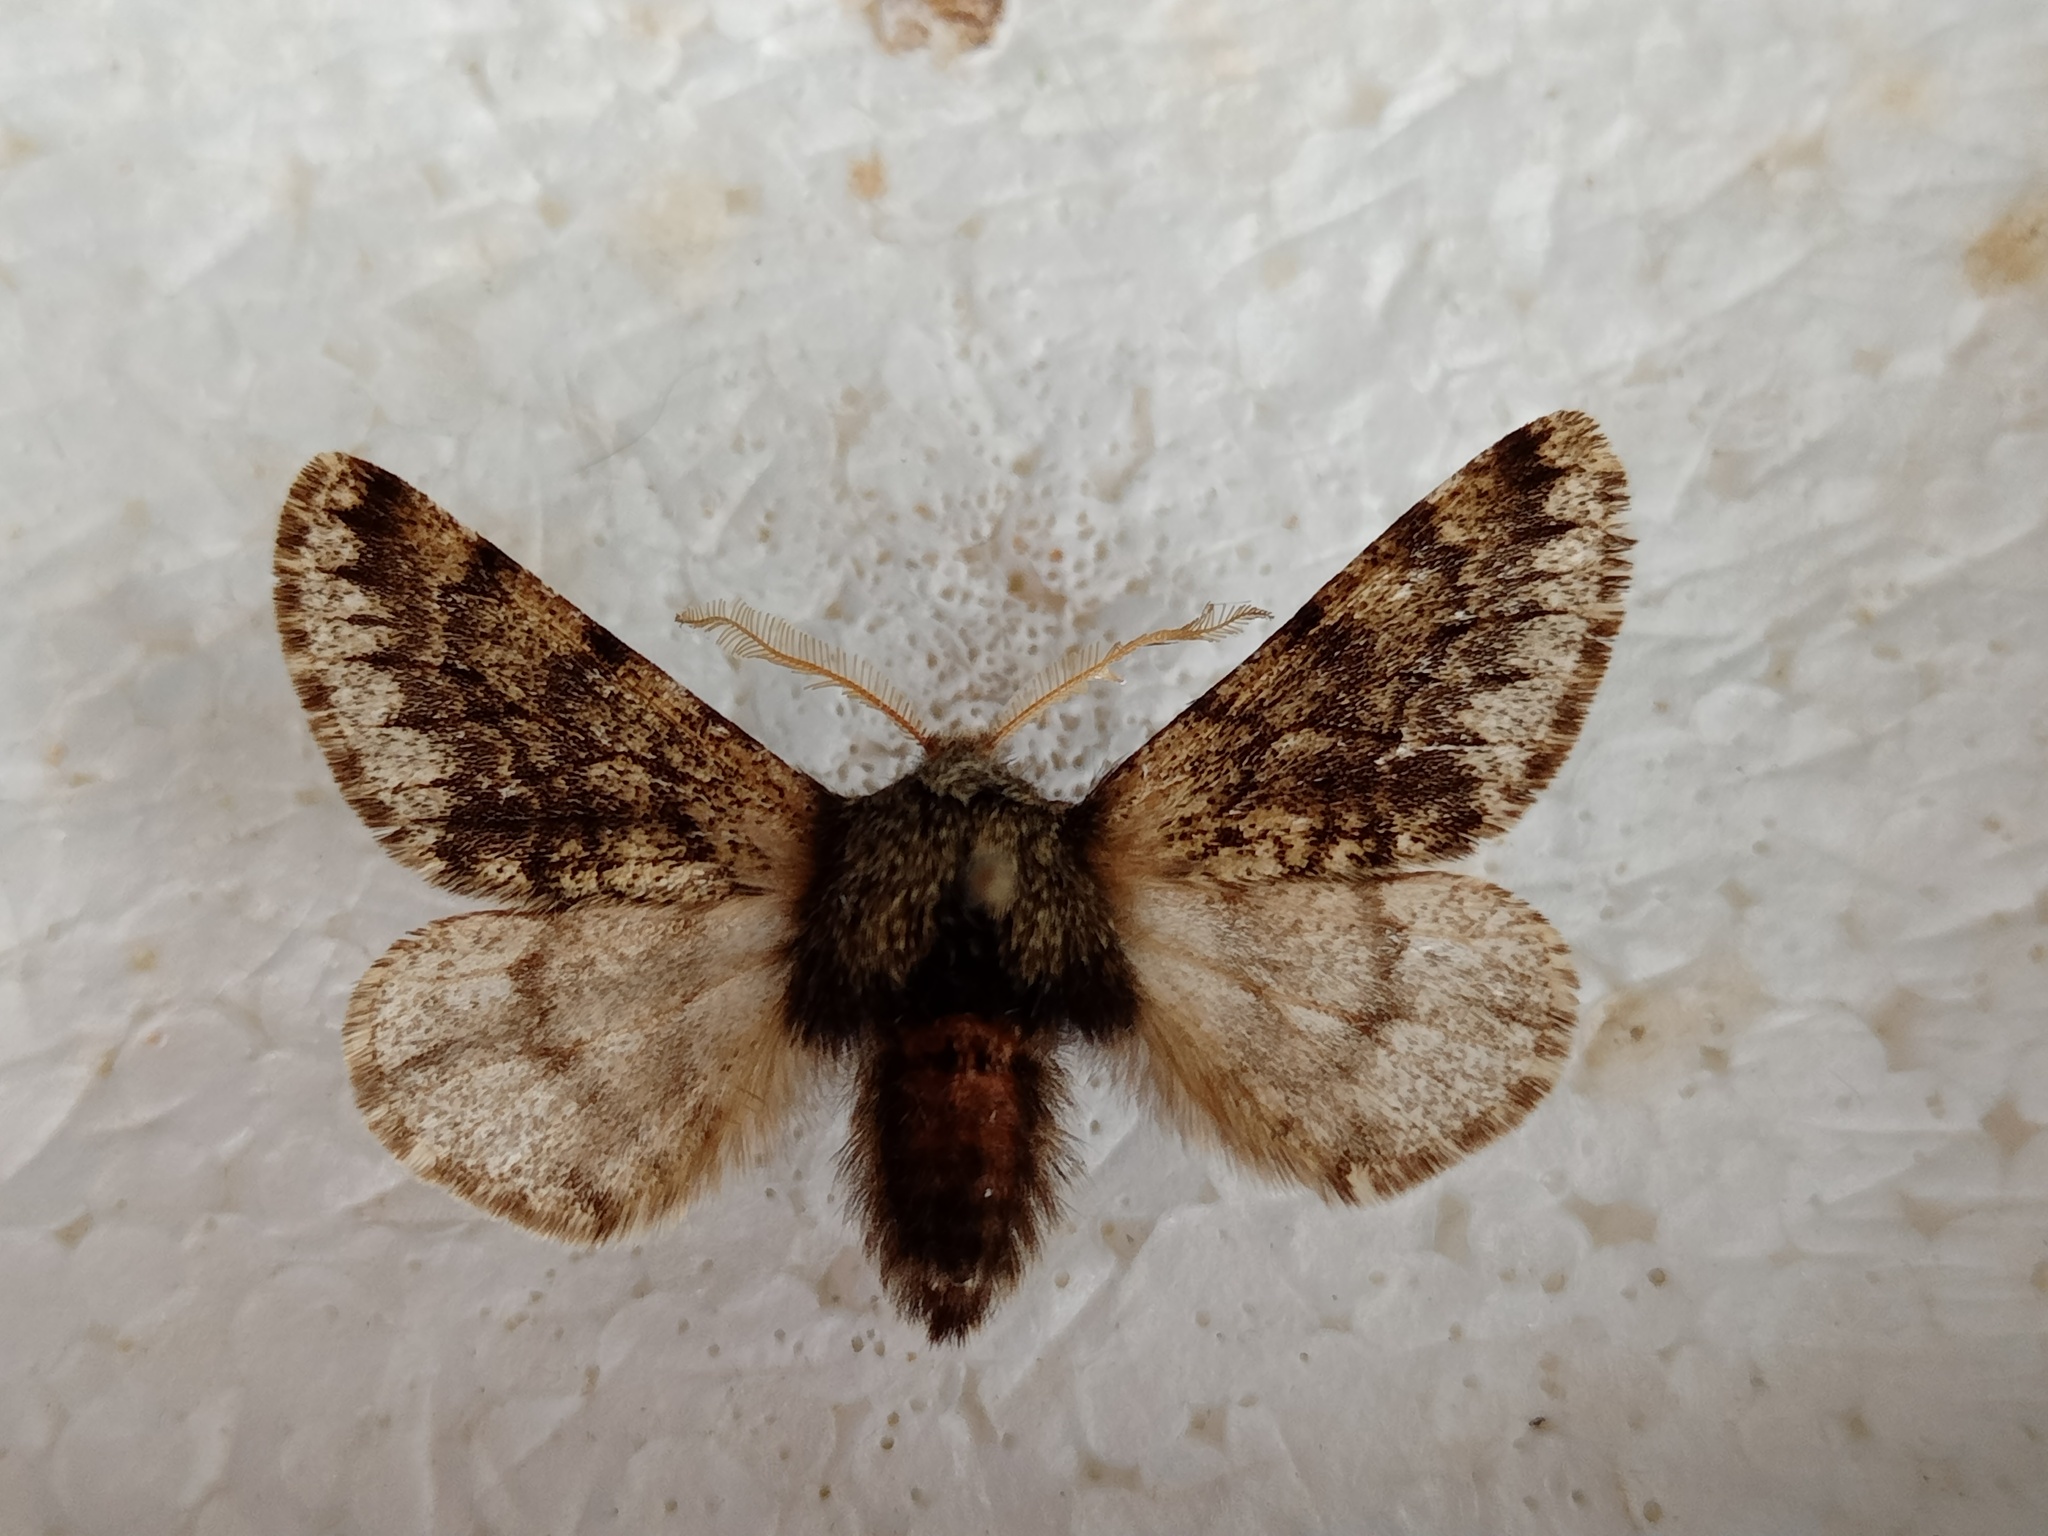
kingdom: Animalia
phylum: Arthropoda
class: Insecta
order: Lepidoptera
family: Geometridae
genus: Apocheima
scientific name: Apocheima hispidaria
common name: Small brindled beauty
